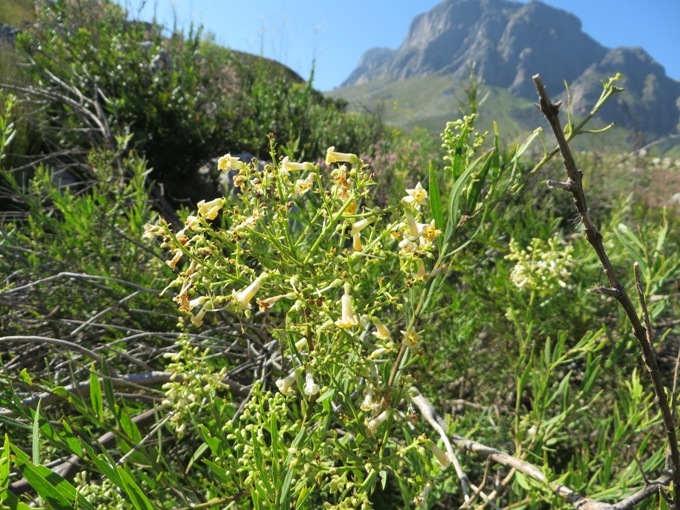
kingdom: Plantae
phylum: Tracheophyta
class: Magnoliopsida
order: Lamiales
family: Scrophulariaceae
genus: Freylinia
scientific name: Freylinia lanceolata
